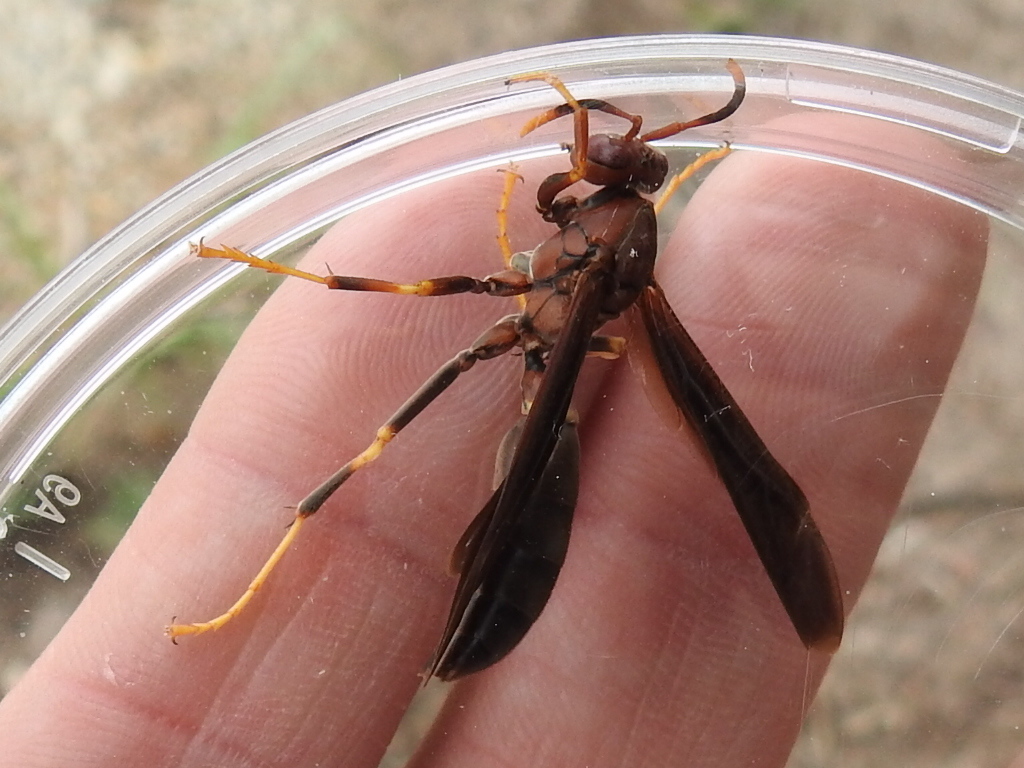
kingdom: Animalia
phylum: Arthropoda
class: Insecta
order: Hymenoptera
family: Eumenidae
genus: Polistes
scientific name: Polistes annularis
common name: Ringed paper wasp
